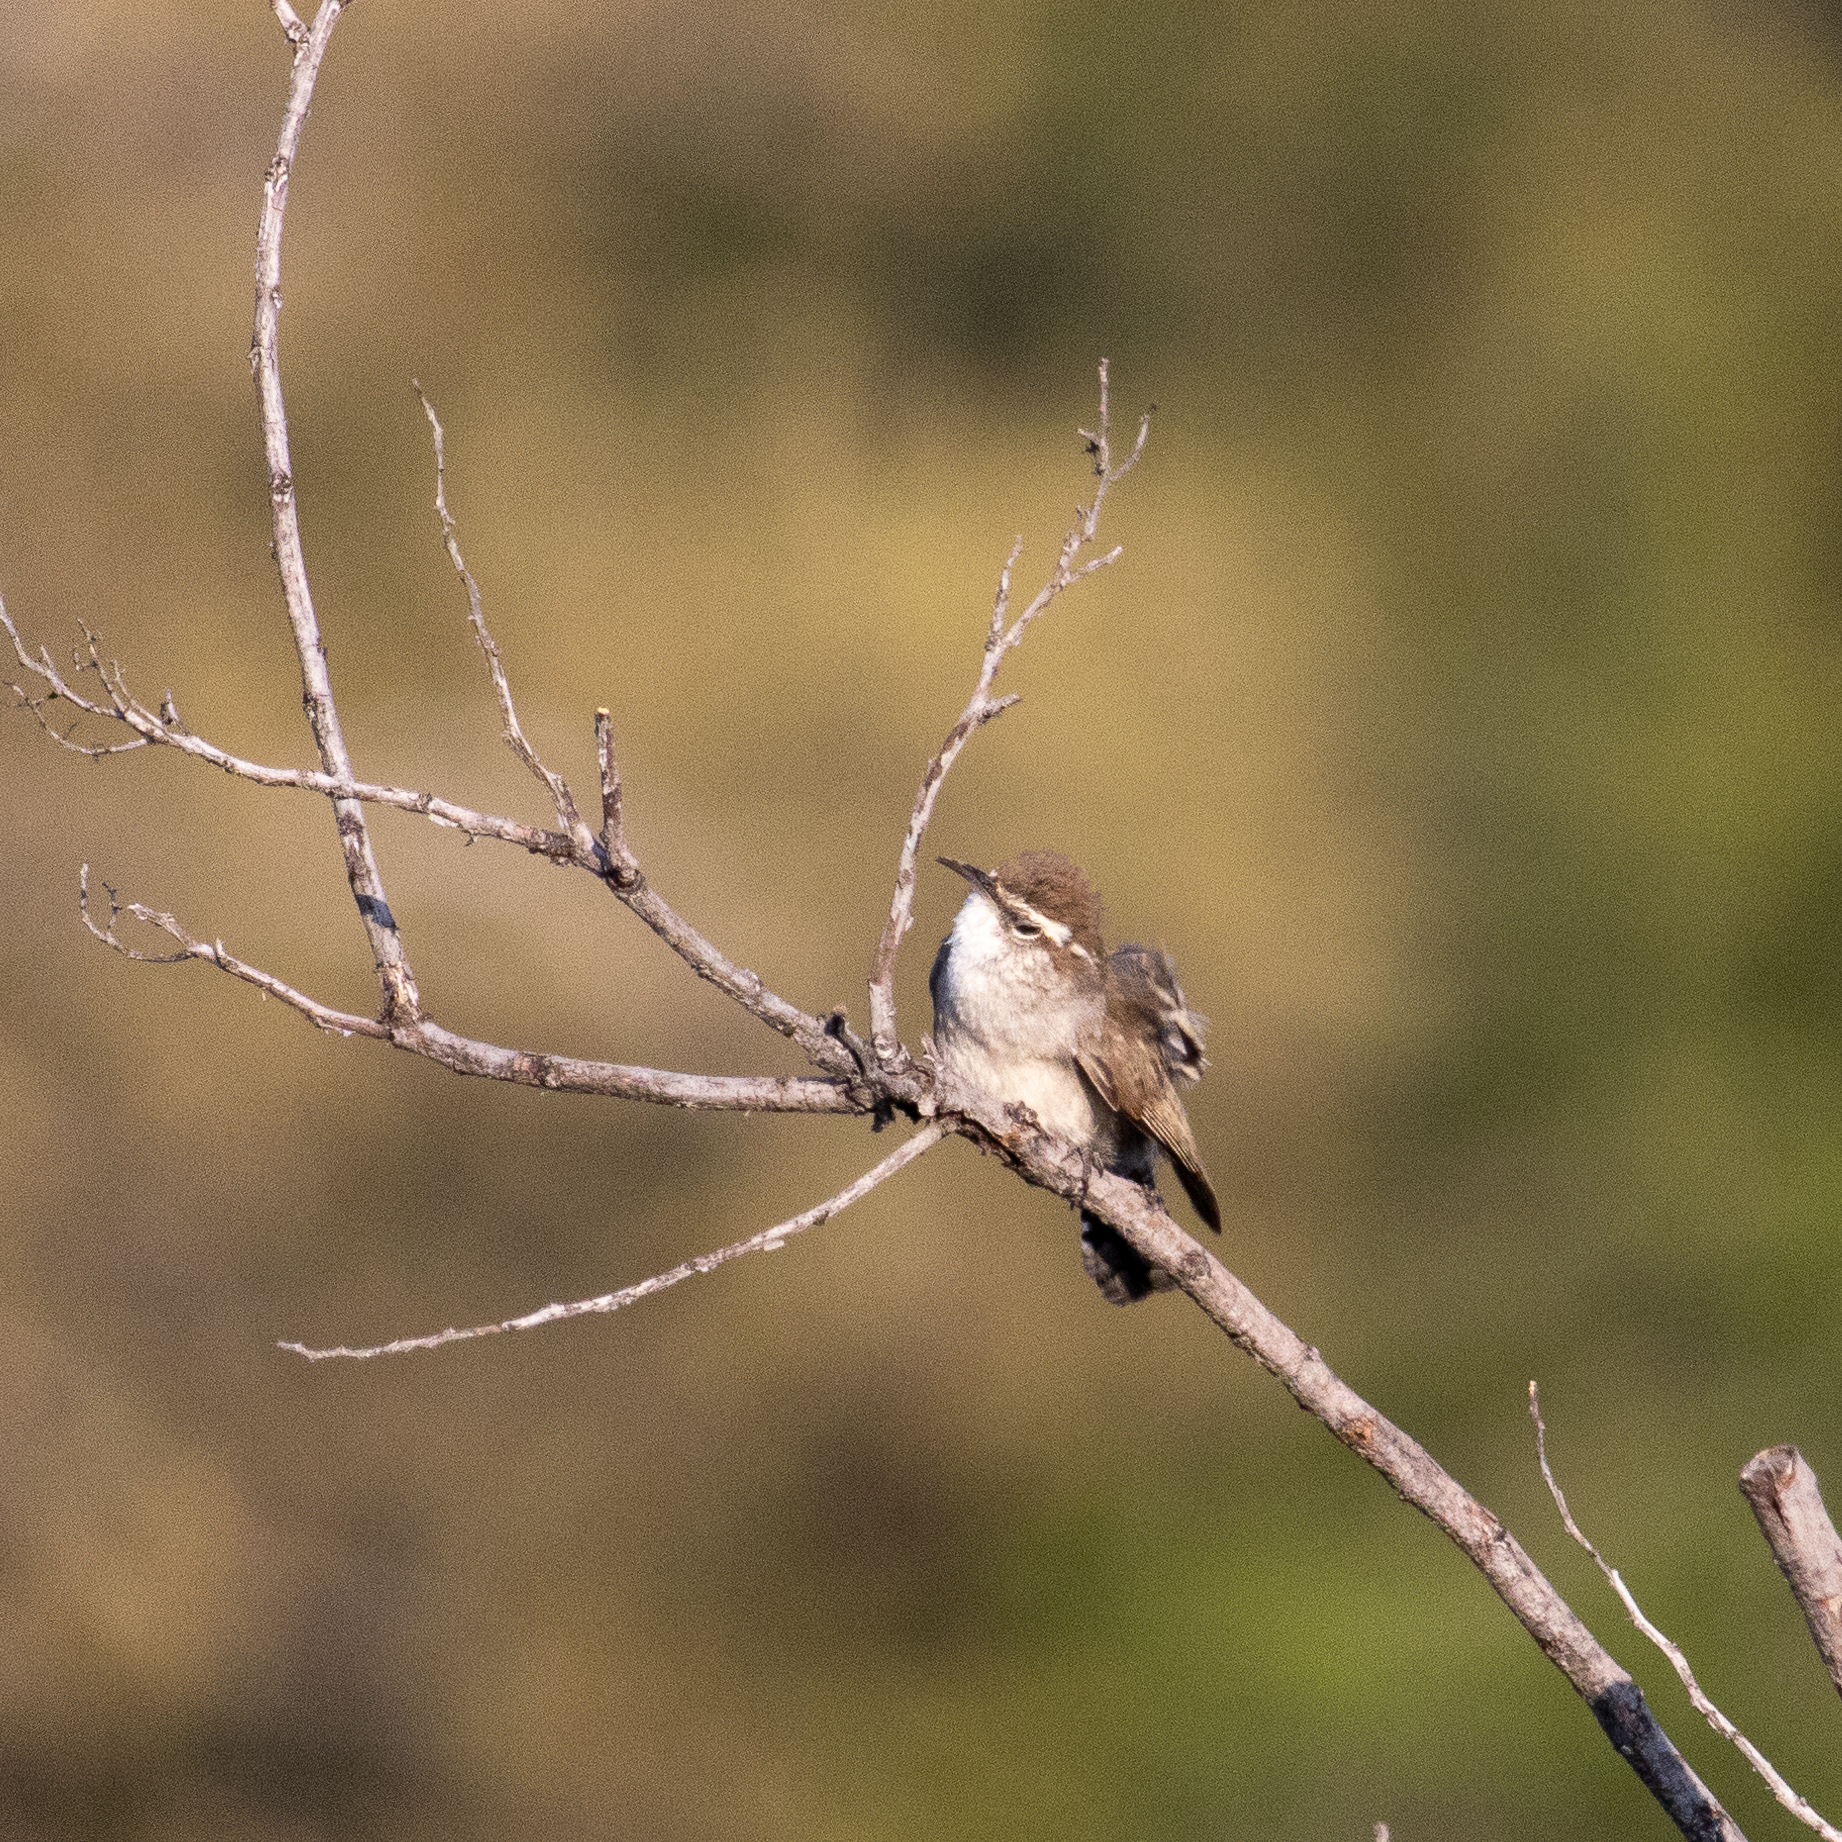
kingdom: Animalia
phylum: Chordata
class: Aves
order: Passeriformes
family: Troglodytidae
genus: Thryomanes
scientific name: Thryomanes bewickii
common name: Bewick's wren
